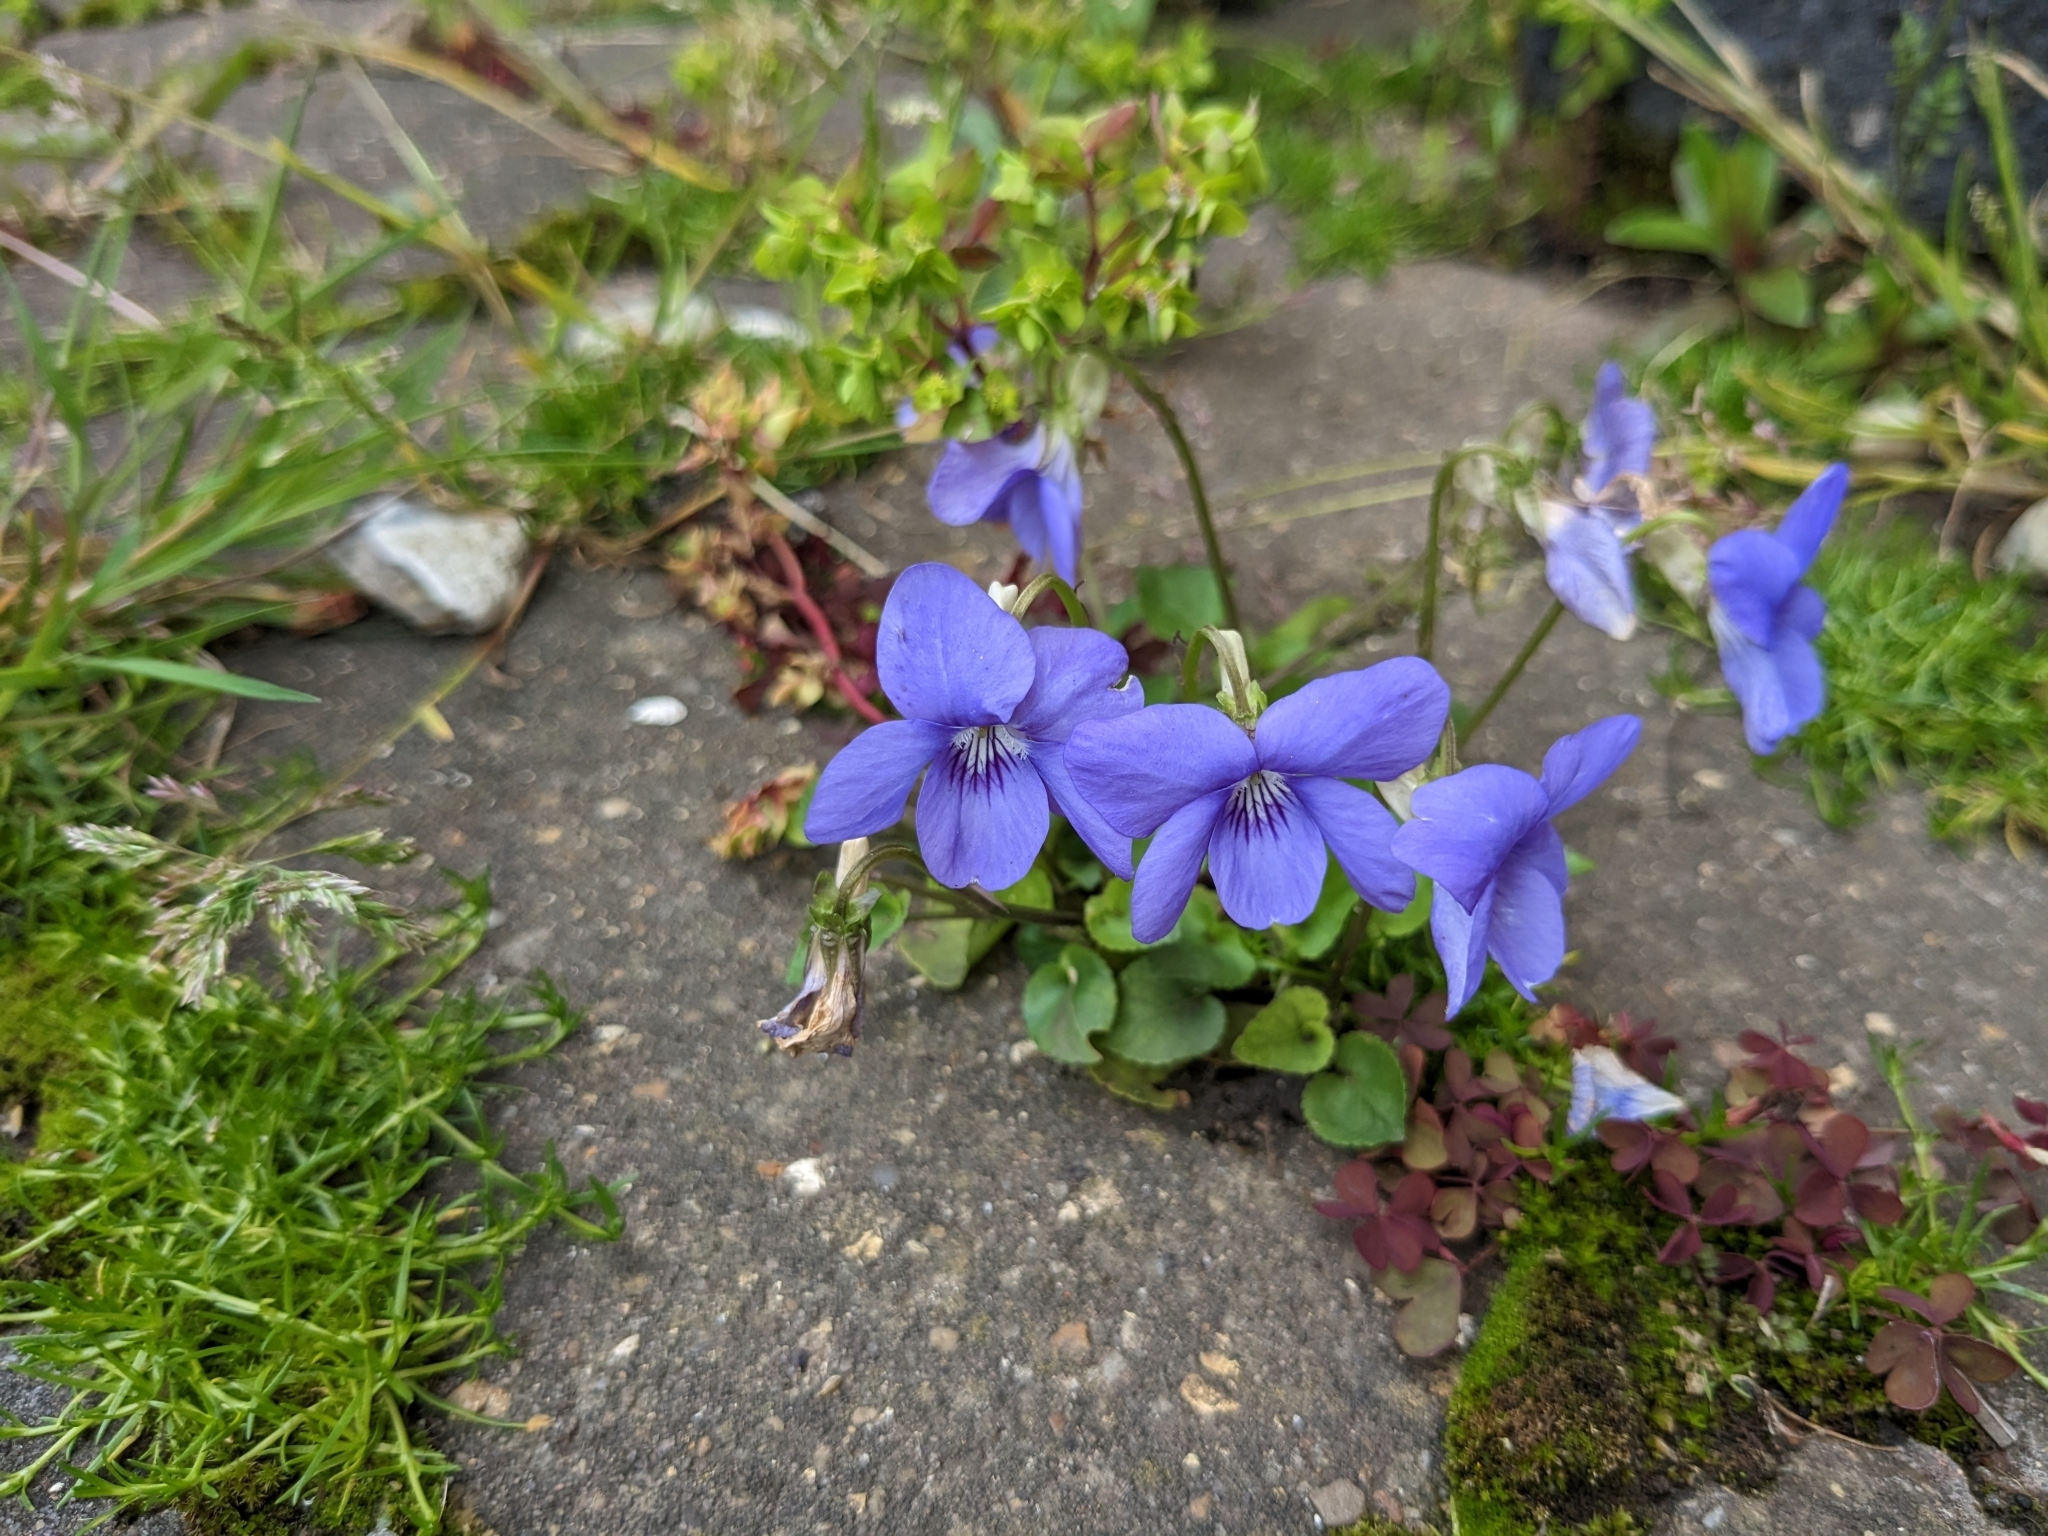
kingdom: Plantae
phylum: Tracheophyta
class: Magnoliopsida
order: Malpighiales
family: Violaceae
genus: Viola
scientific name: Viola riviniana
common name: Common dog-violet
